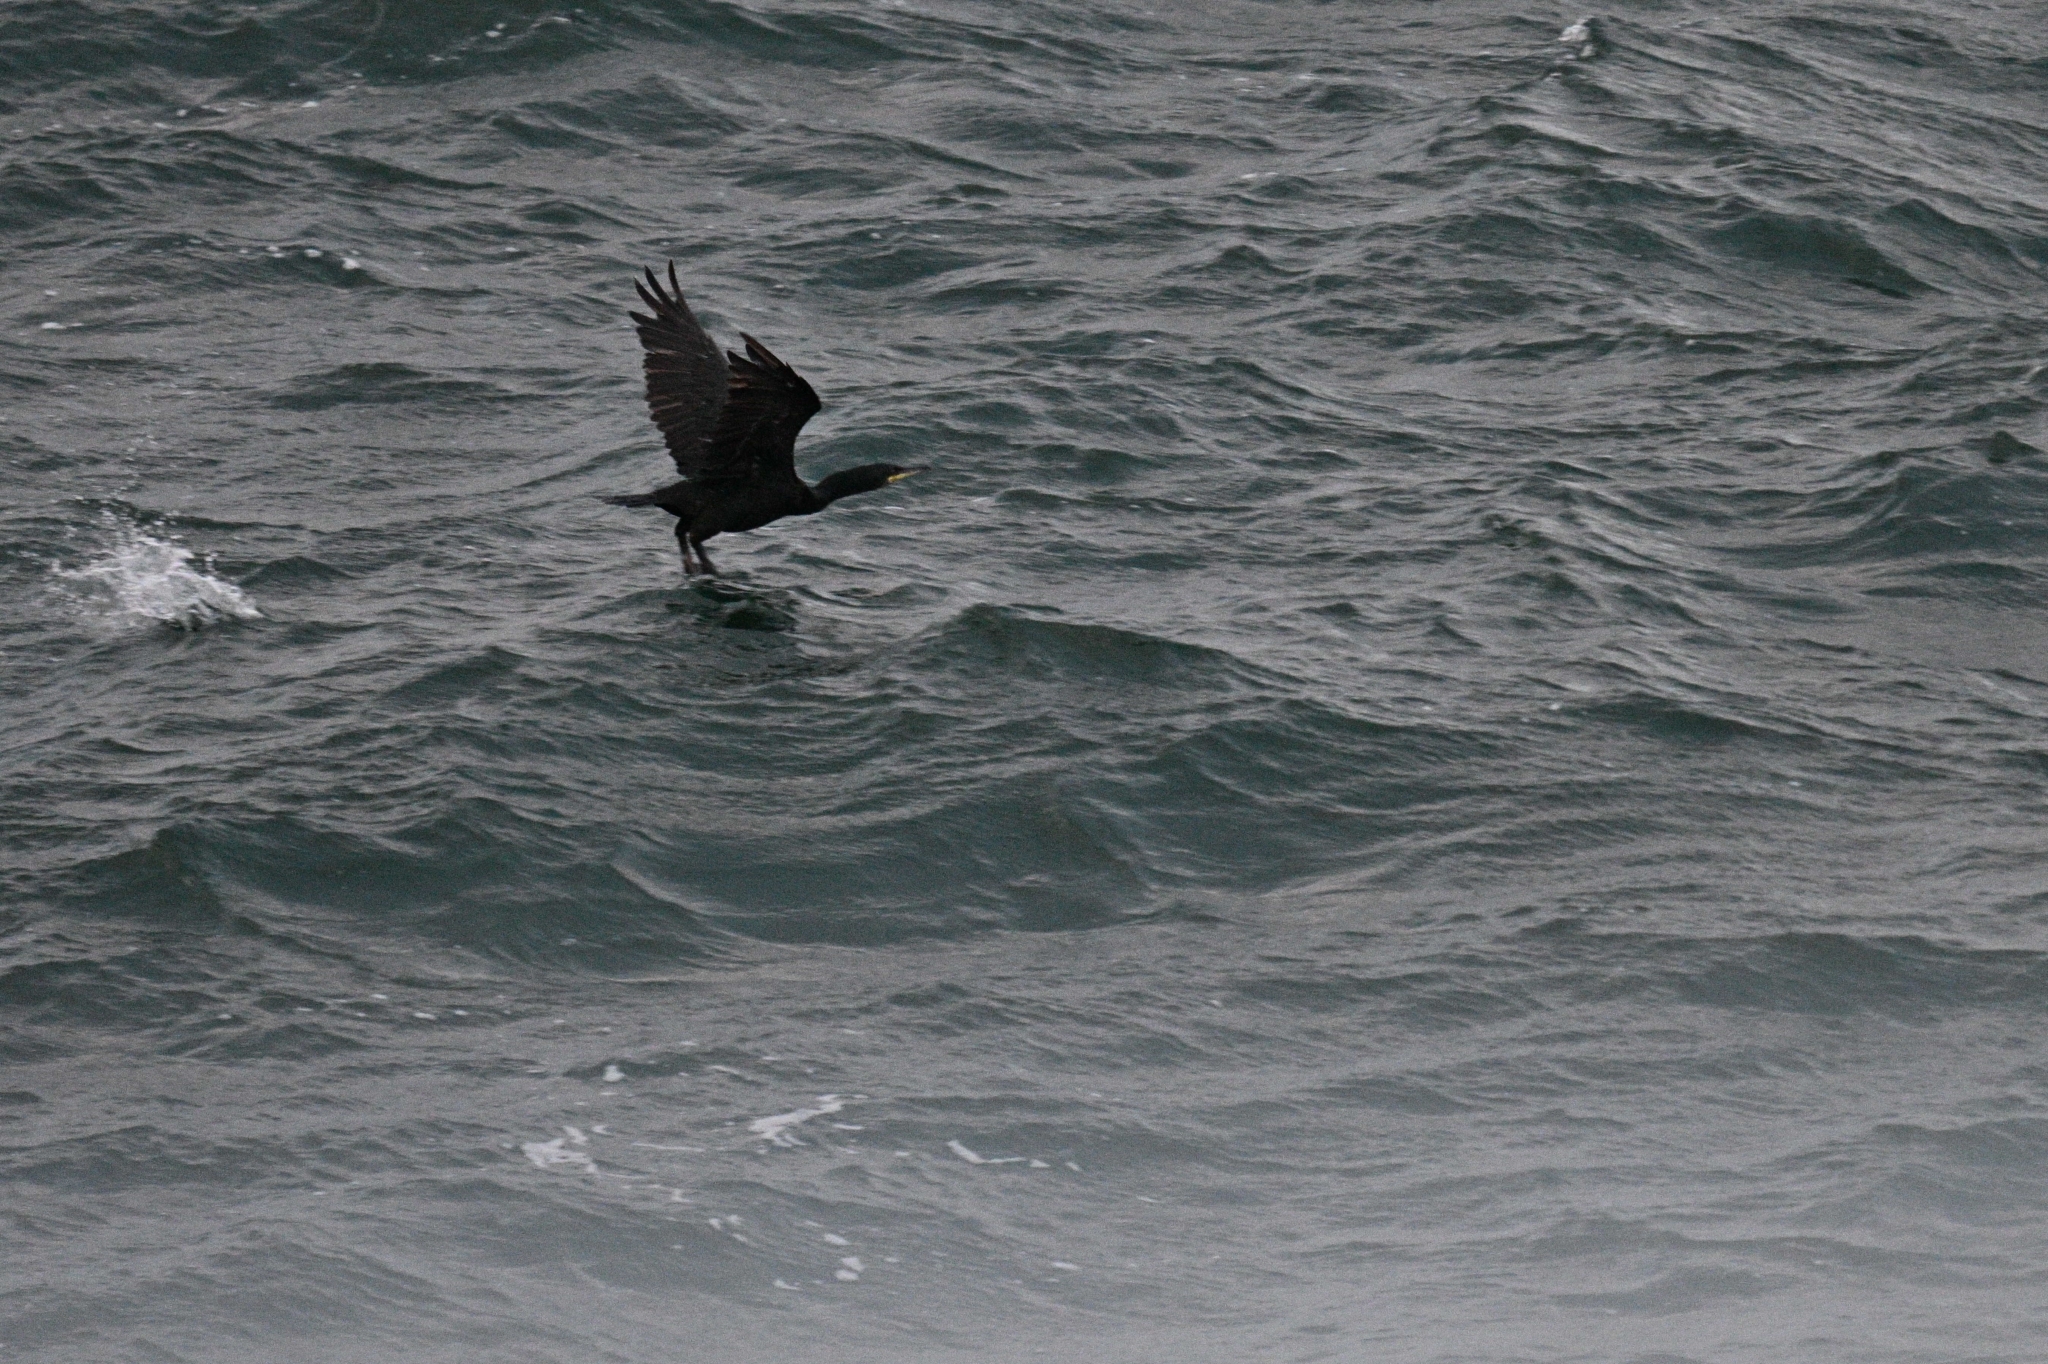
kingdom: Animalia
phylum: Chordata
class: Aves
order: Suliformes
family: Phalacrocoracidae
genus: Phalacrocorax
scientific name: Phalacrocorax aristotelis
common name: European shag
